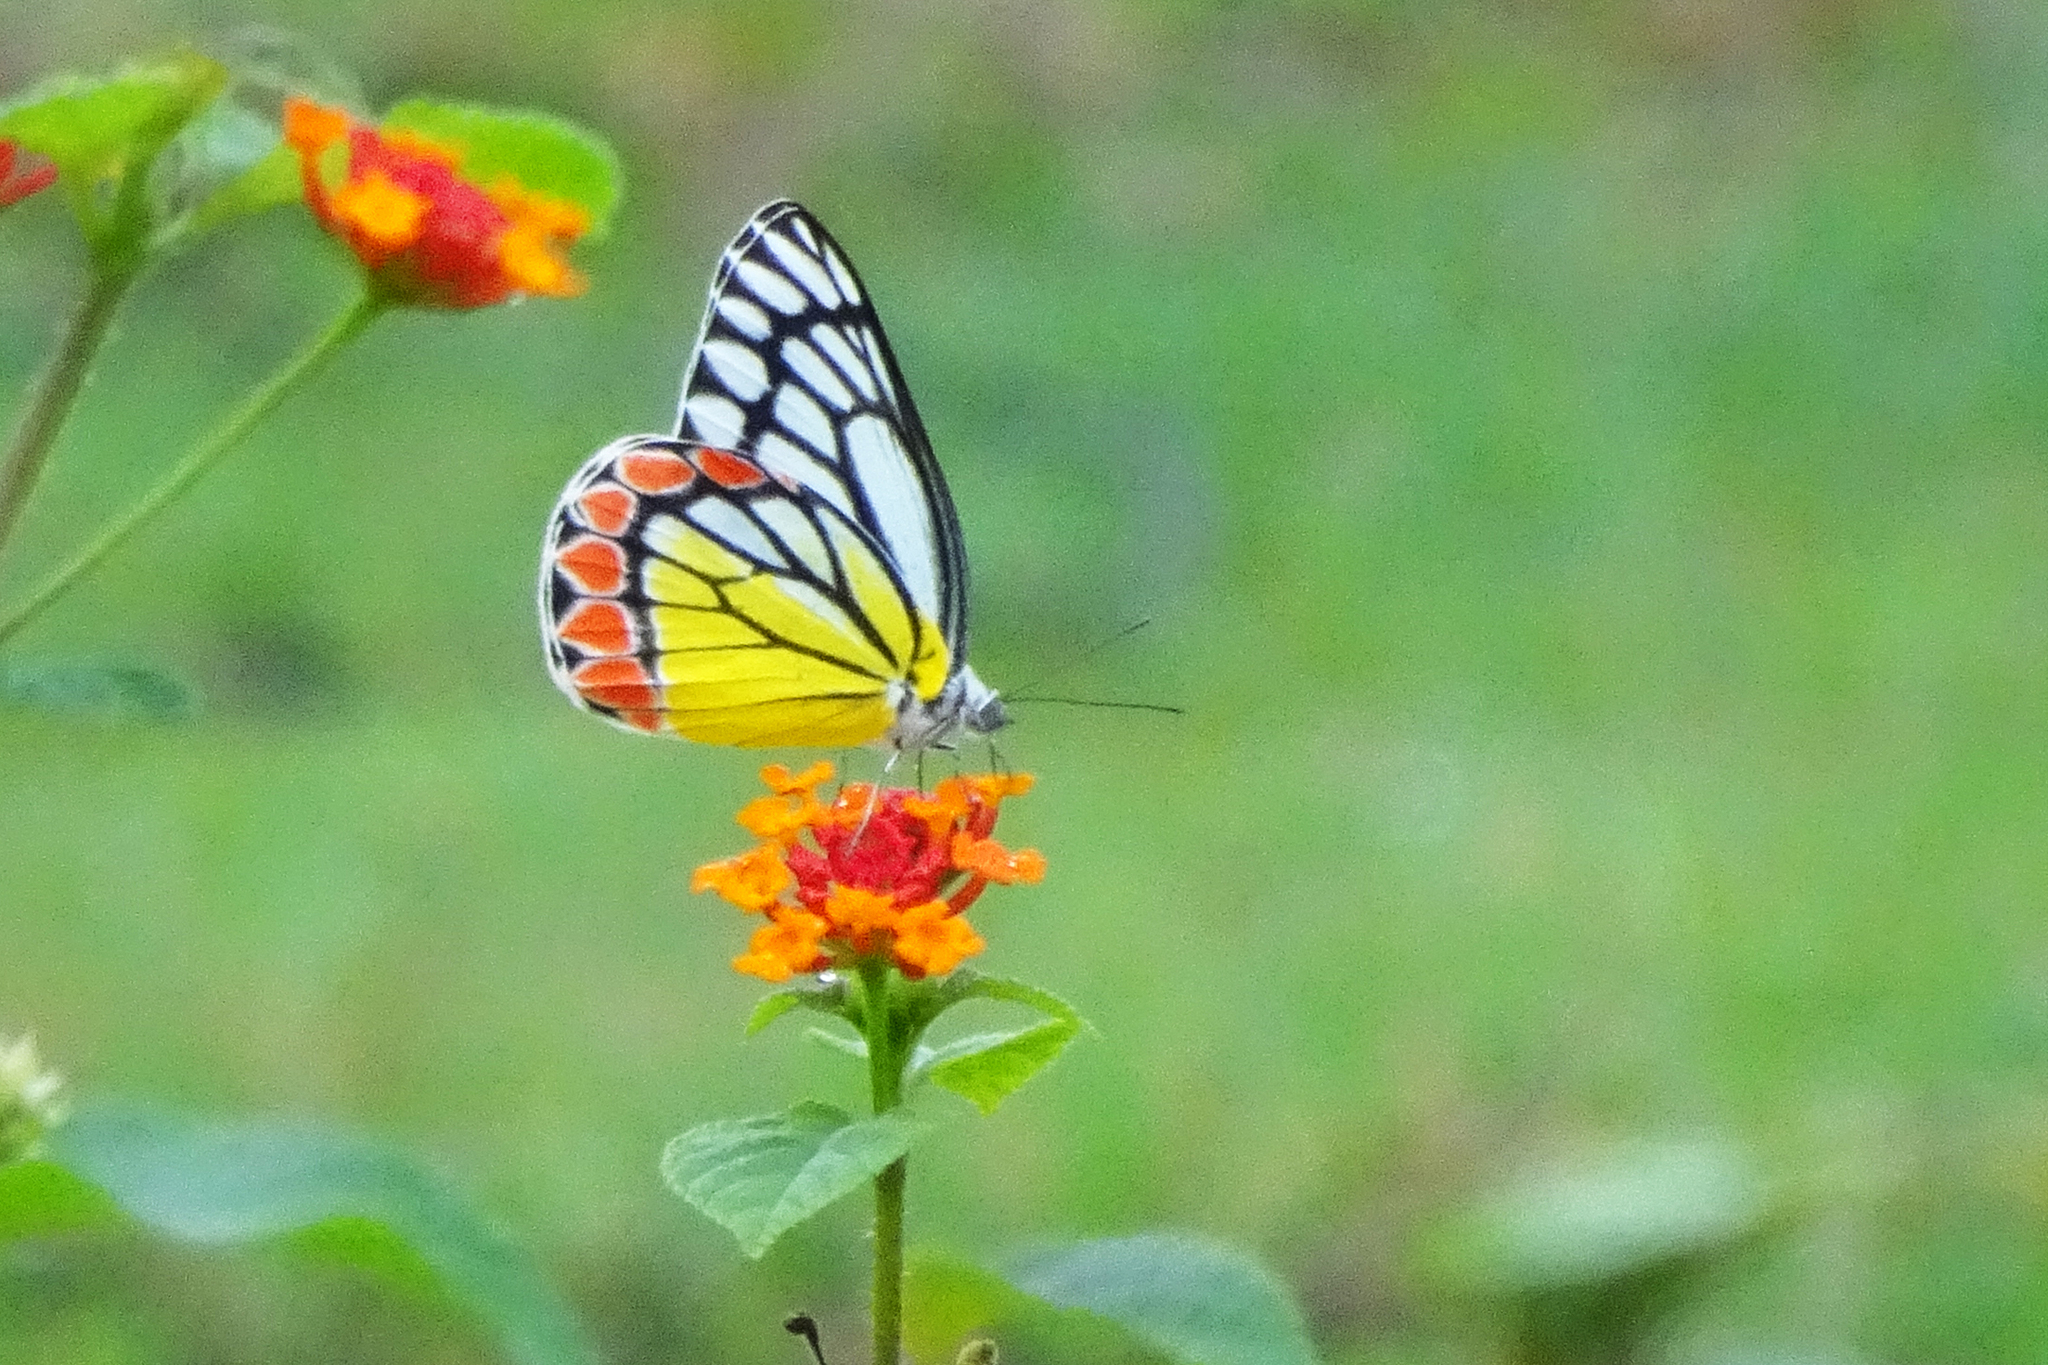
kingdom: Animalia
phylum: Arthropoda
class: Insecta
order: Lepidoptera
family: Pieridae
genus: Delias
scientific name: Delias eucharis
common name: Common jezebel
